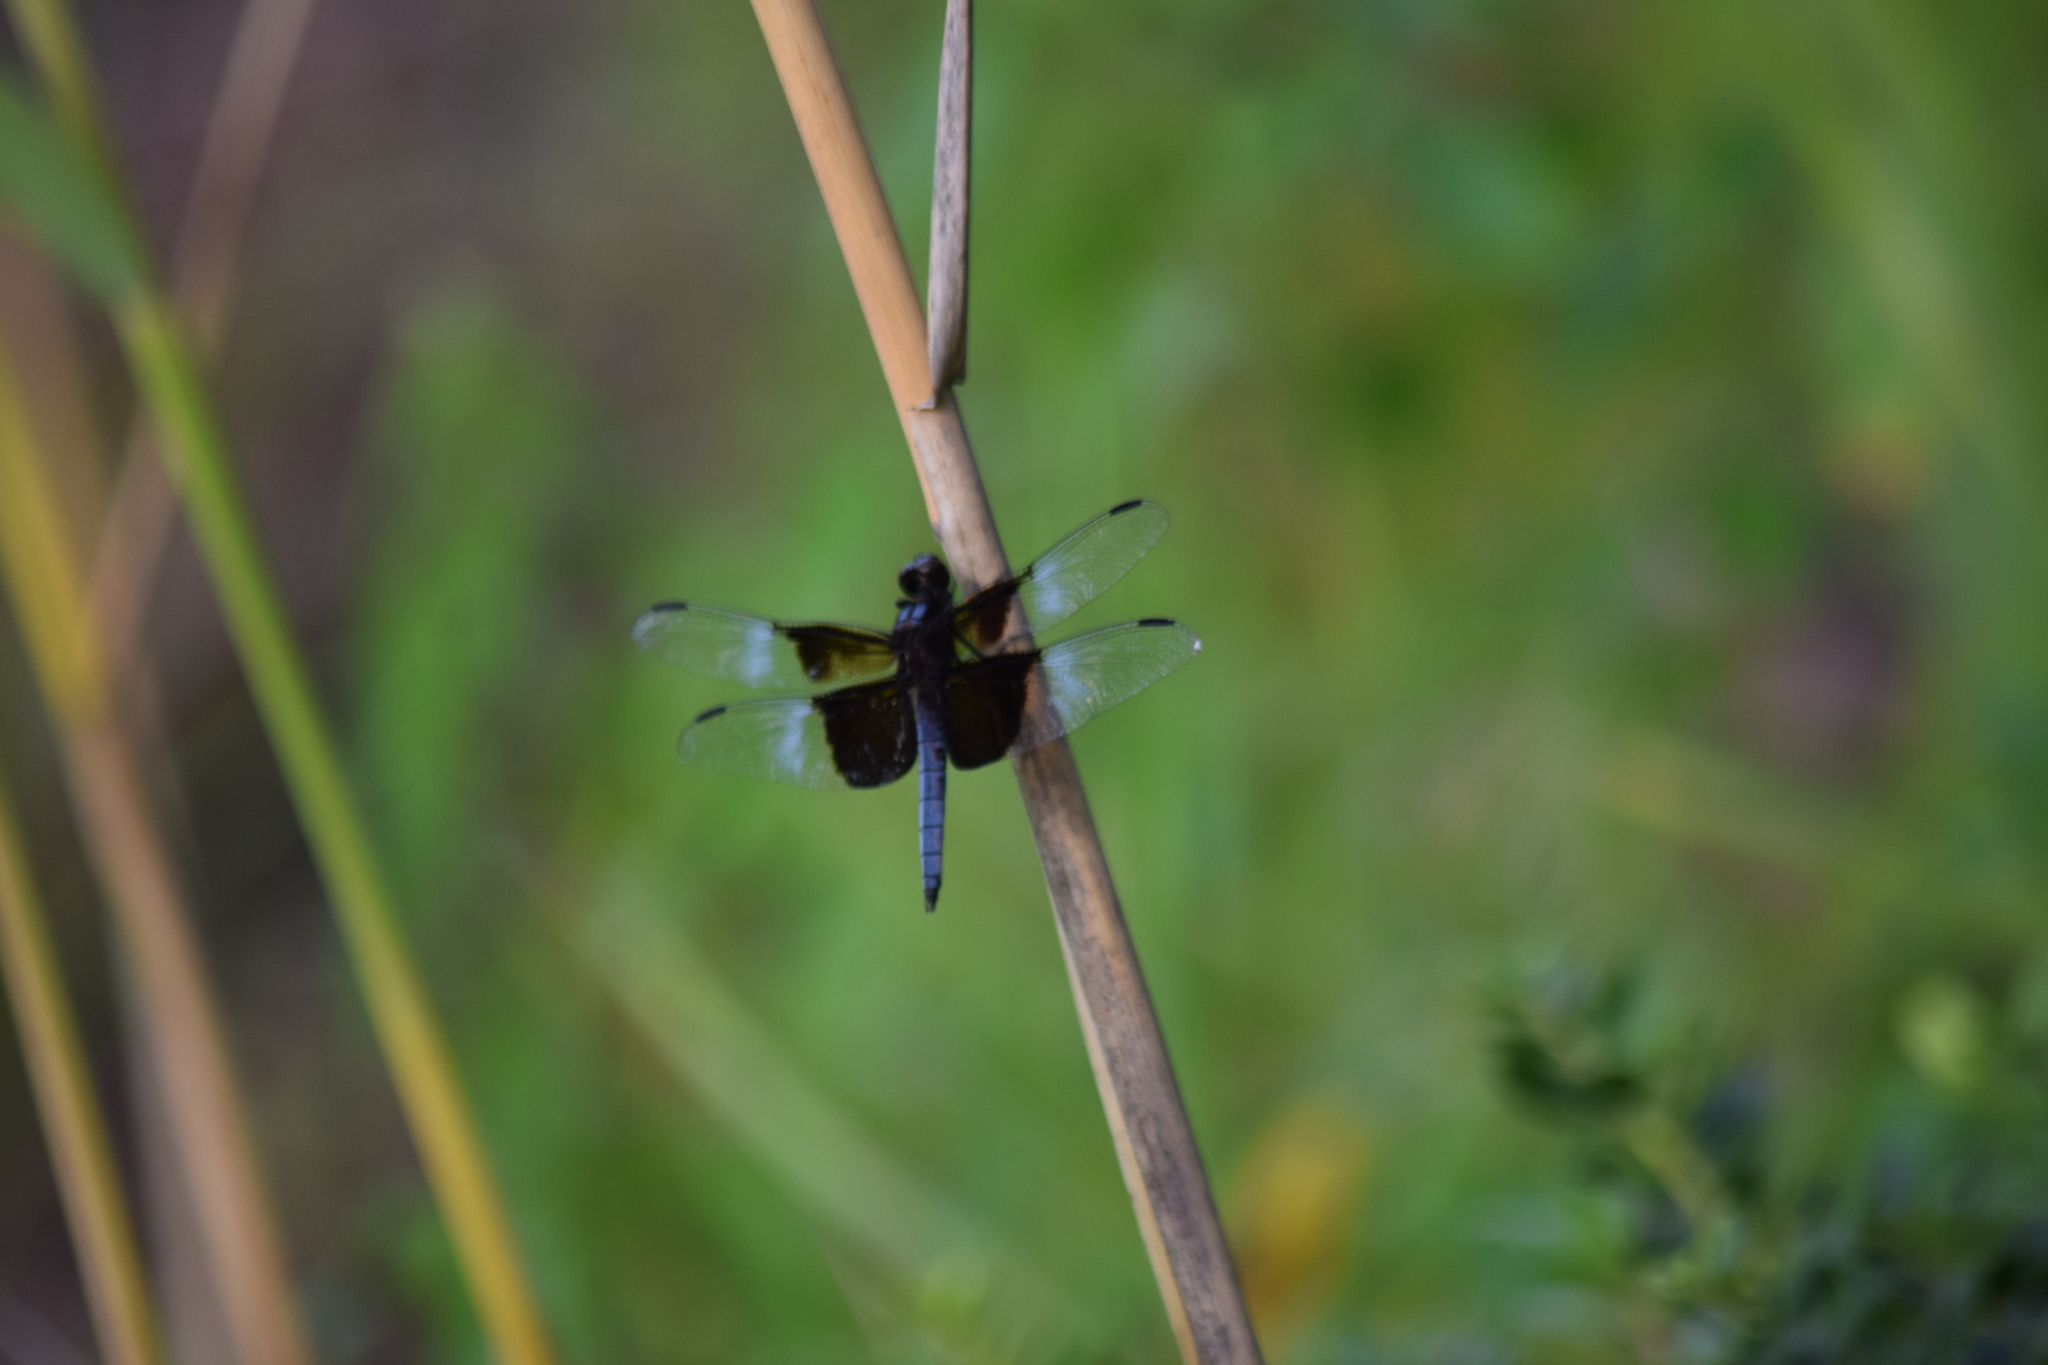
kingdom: Animalia
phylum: Arthropoda
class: Insecta
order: Odonata
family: Libellulidae
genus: Libellula
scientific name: Libellula luctuosa
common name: Widow skimmer
